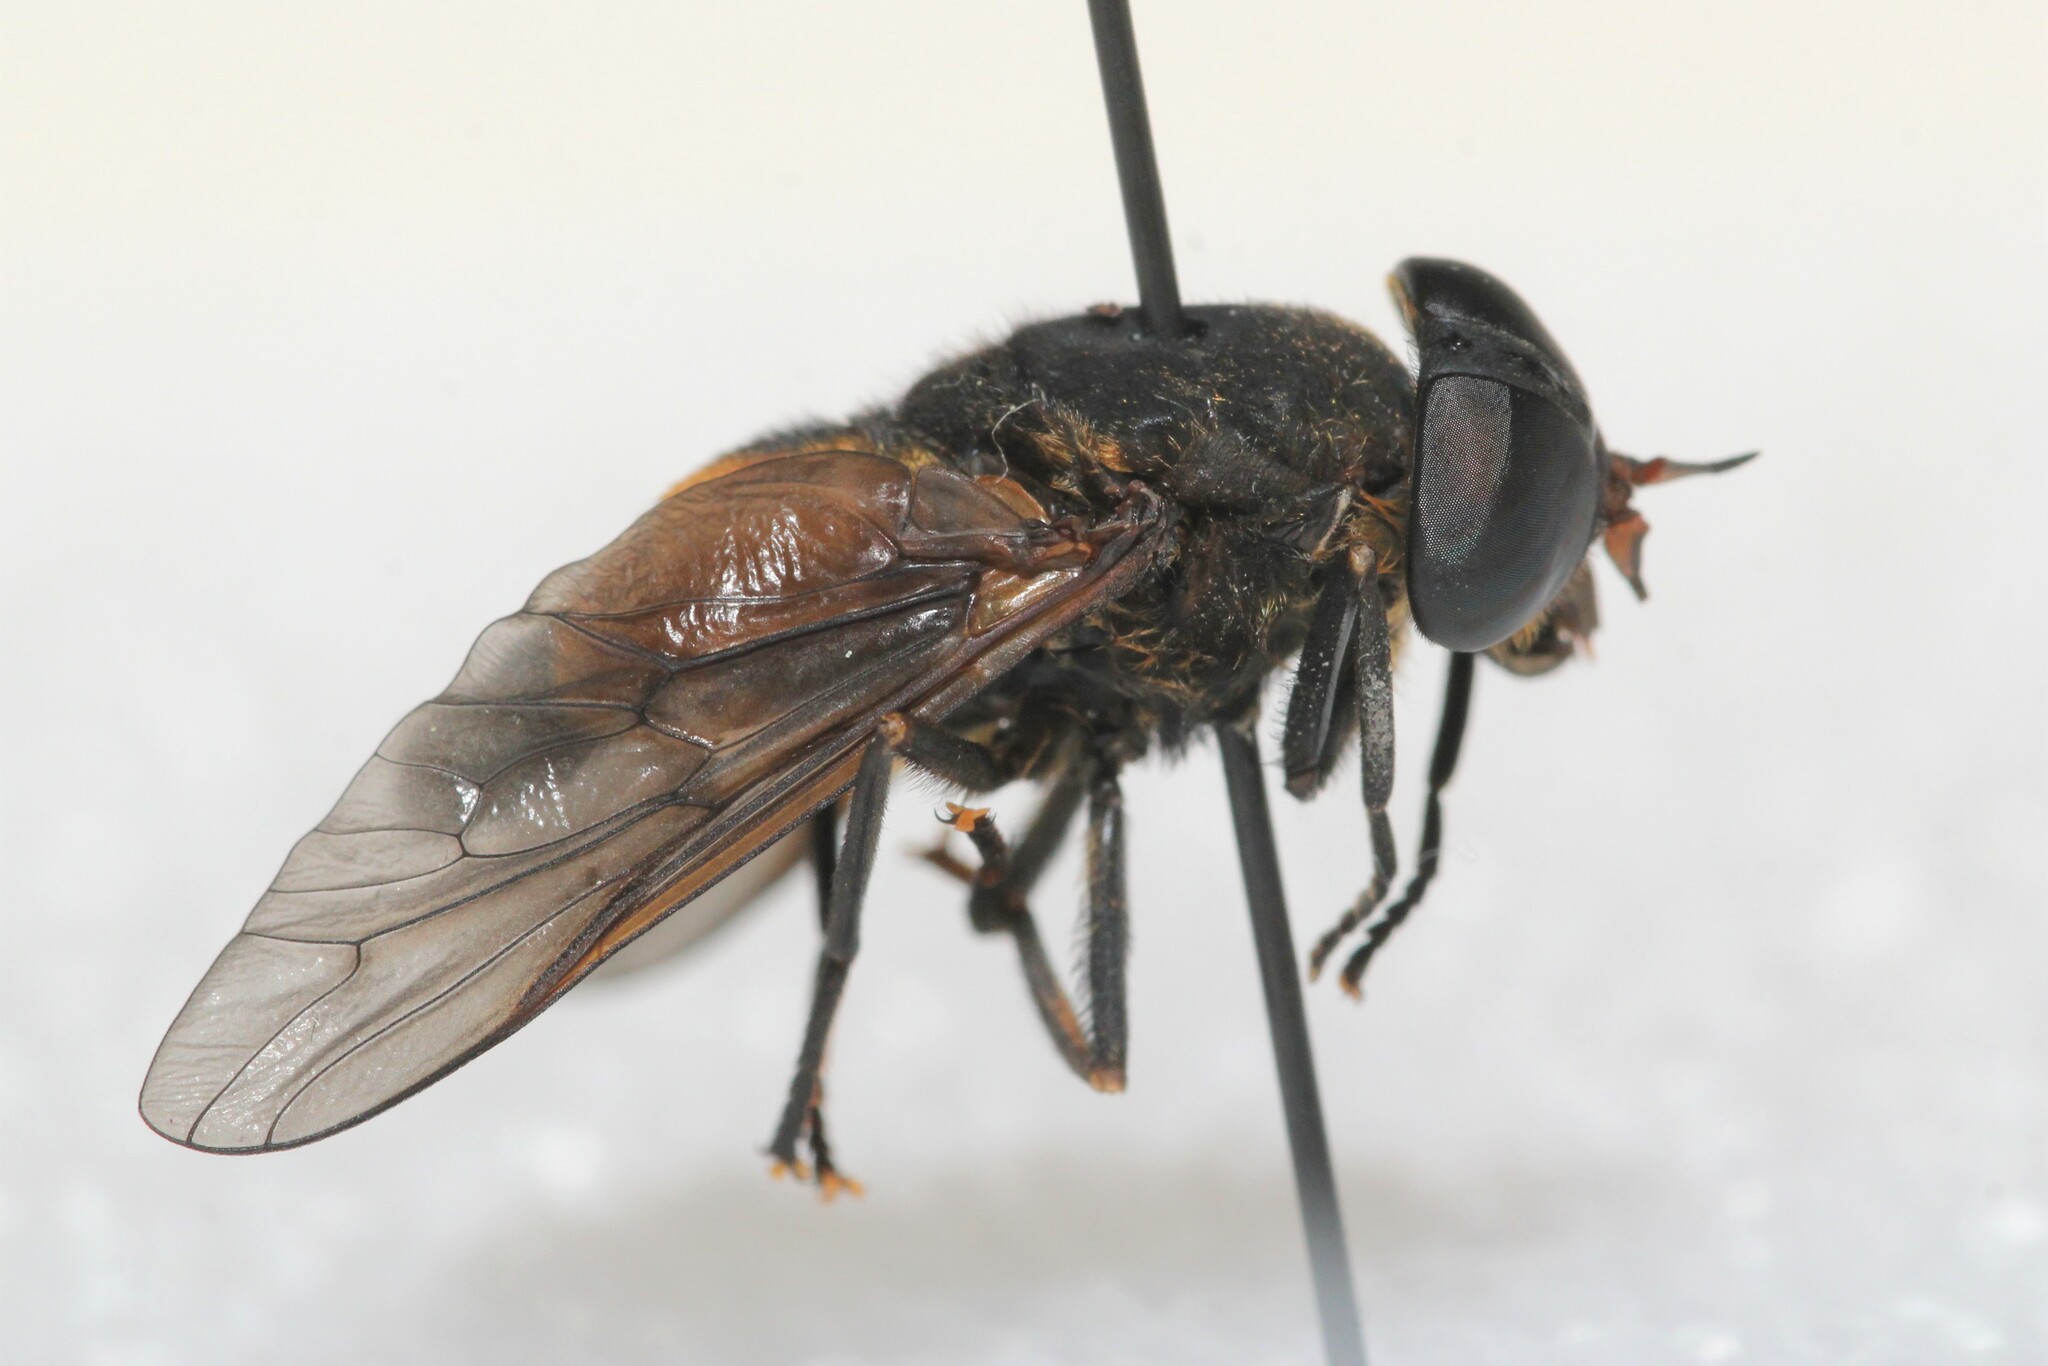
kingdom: Animalia
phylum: Arthropoda
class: Insecta
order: Diptera
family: Tabanidae
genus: Hybomitra
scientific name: Hybomitra criddlei
